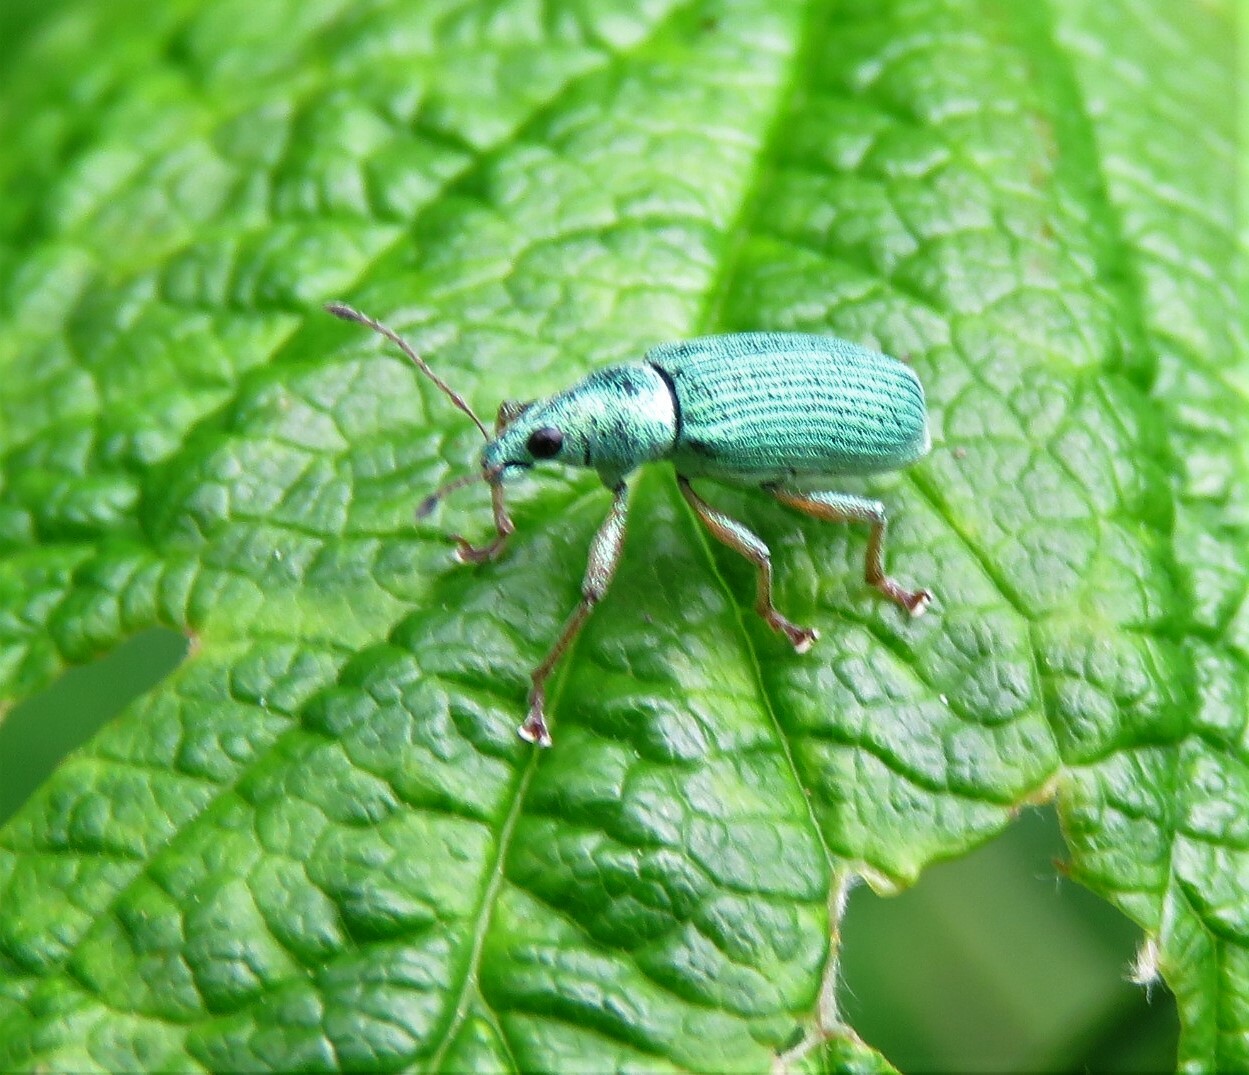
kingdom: Animalia
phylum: Arthropoda
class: Insecta
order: Coleoptera
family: Curculionidae
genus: Polydrusus
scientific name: Polydrusus formosus
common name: Weevil
